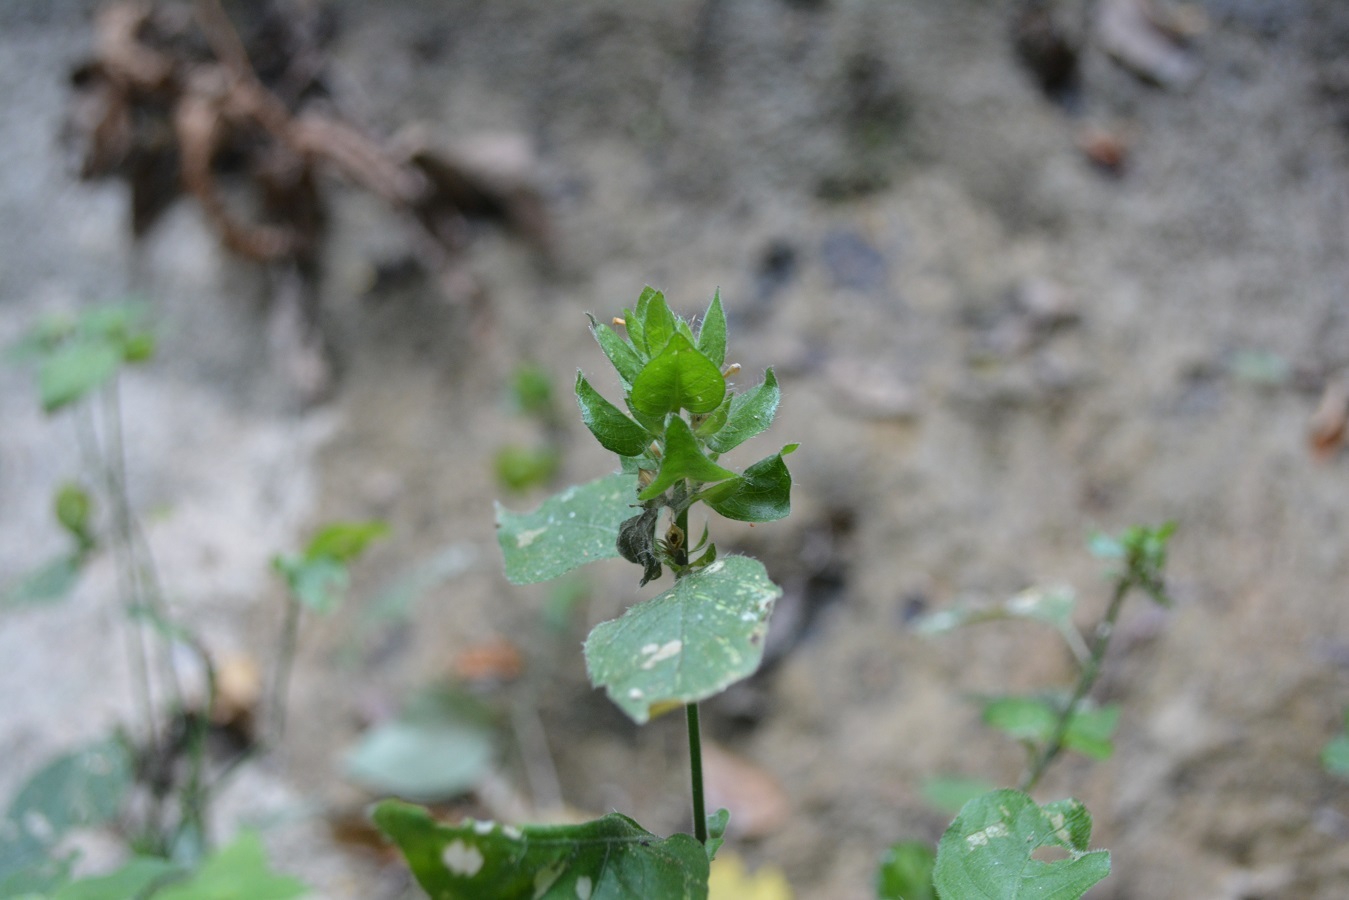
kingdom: Plantae
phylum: Tracheophyta
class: Magnoliopsida
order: Lamiales
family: Acanthaceae
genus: Ruellia
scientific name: Ruellia blechum
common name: Browne's blechum
